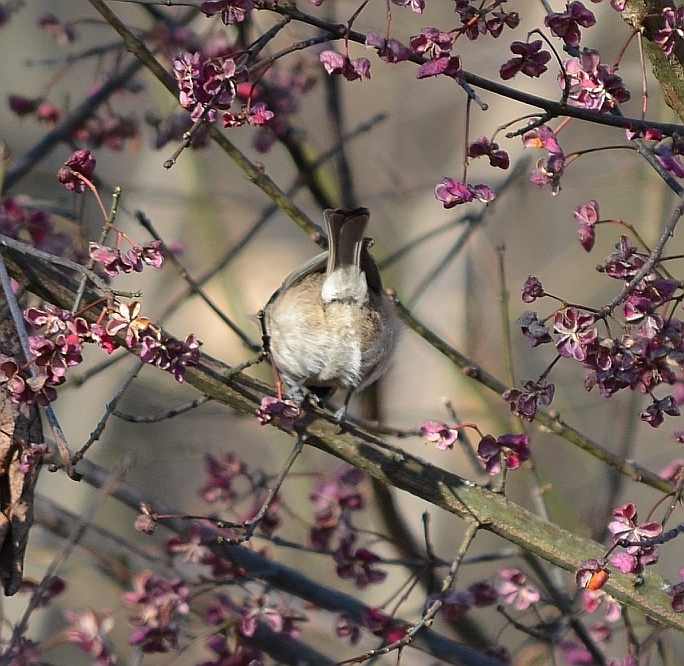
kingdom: Animalia
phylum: Chordata
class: Aves
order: Passeriformes
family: Paridae
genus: Poecile
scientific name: Poecile montanus
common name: Willow tit
